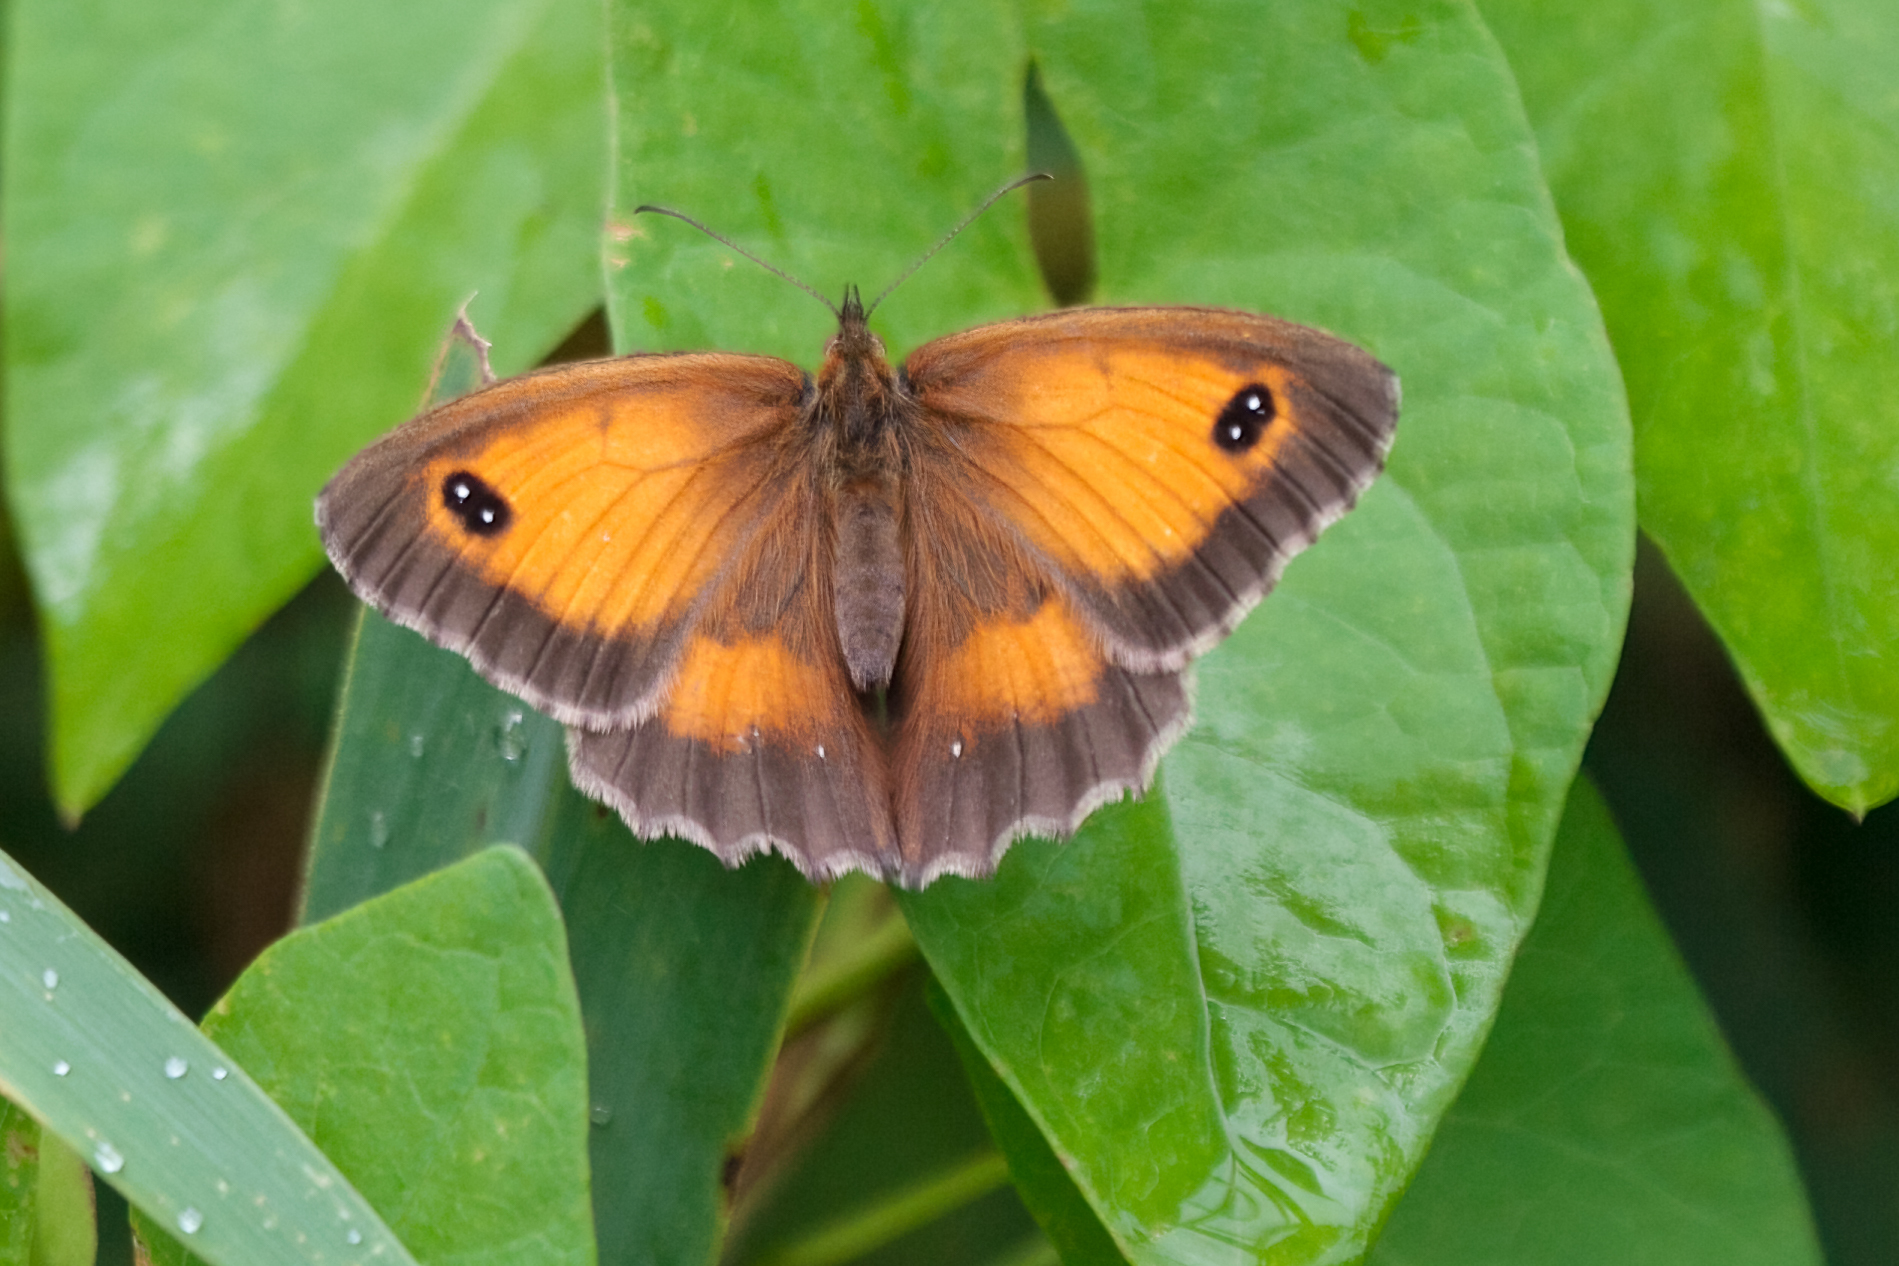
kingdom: Animalia
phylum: Arthropoda
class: Insecta
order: Lepidoptera
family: Nymphalidae
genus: Pyronia
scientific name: Pyronia tithonus
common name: Gatekeeper
